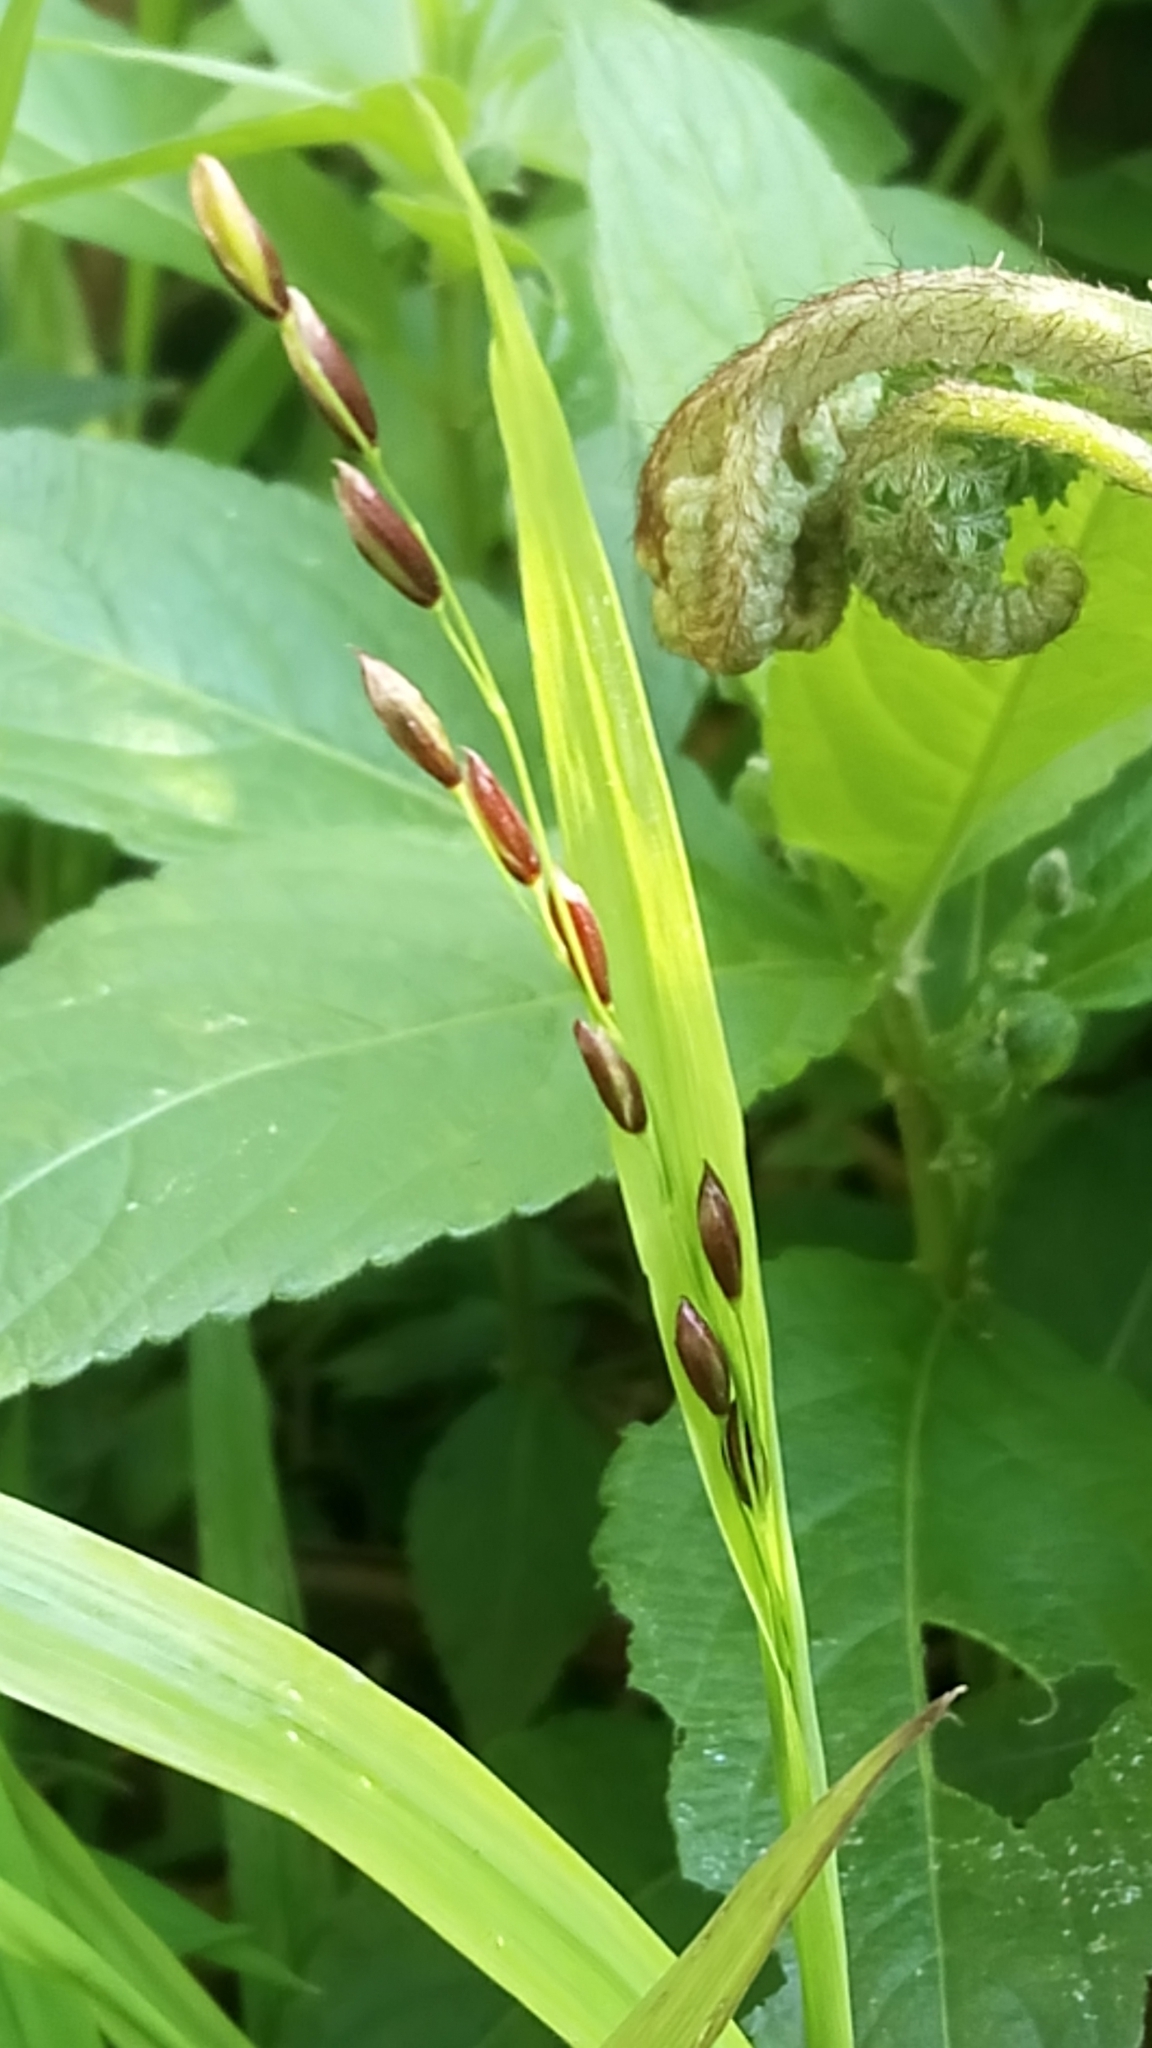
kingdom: Plantae
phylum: Tracheophyta
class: Liliopsida
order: Poales
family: Poaceae
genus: Melica
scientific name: Melica uniflora
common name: Wood melick
